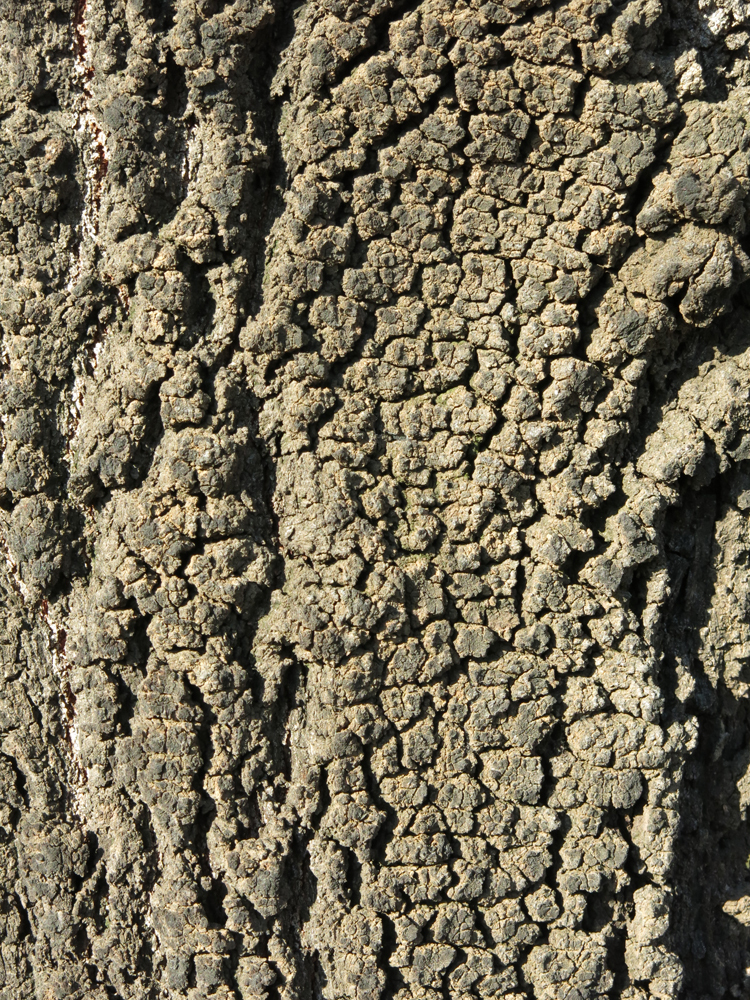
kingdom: Plantae
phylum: Tracheophyta
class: Magnoliopsida
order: Proteales
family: Proteaceae
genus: Protea
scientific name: Protea caffra
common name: Common sugarbush
